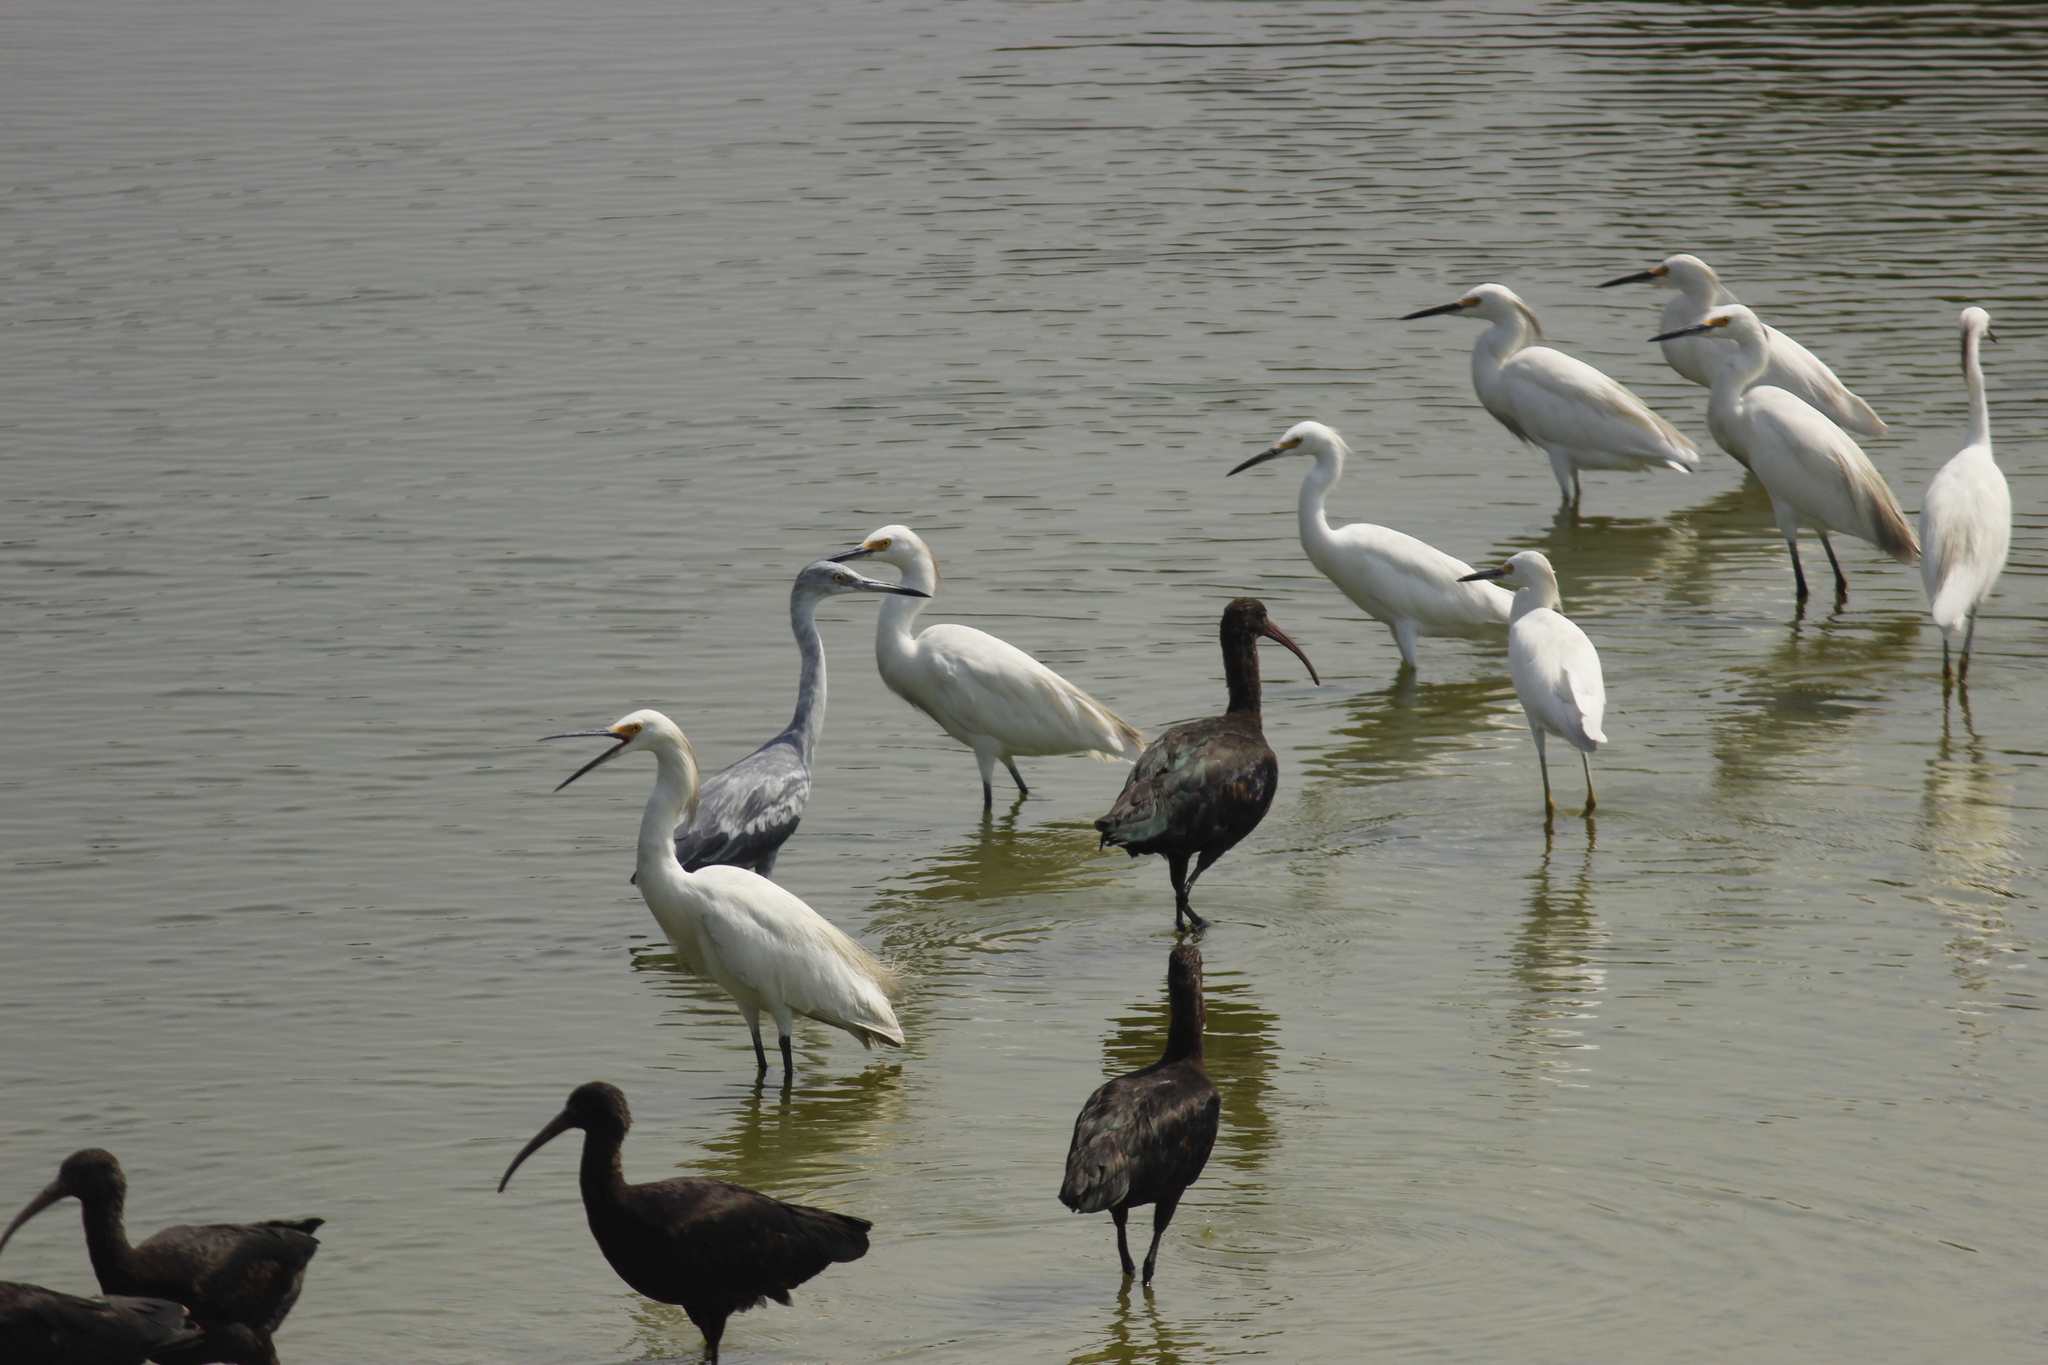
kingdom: Animalia
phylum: Chordata
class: Aves
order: Pelecaniformes
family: Threskiornithidae
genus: Plegadis
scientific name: Plegadis ridgwayi
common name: Puna ibis
